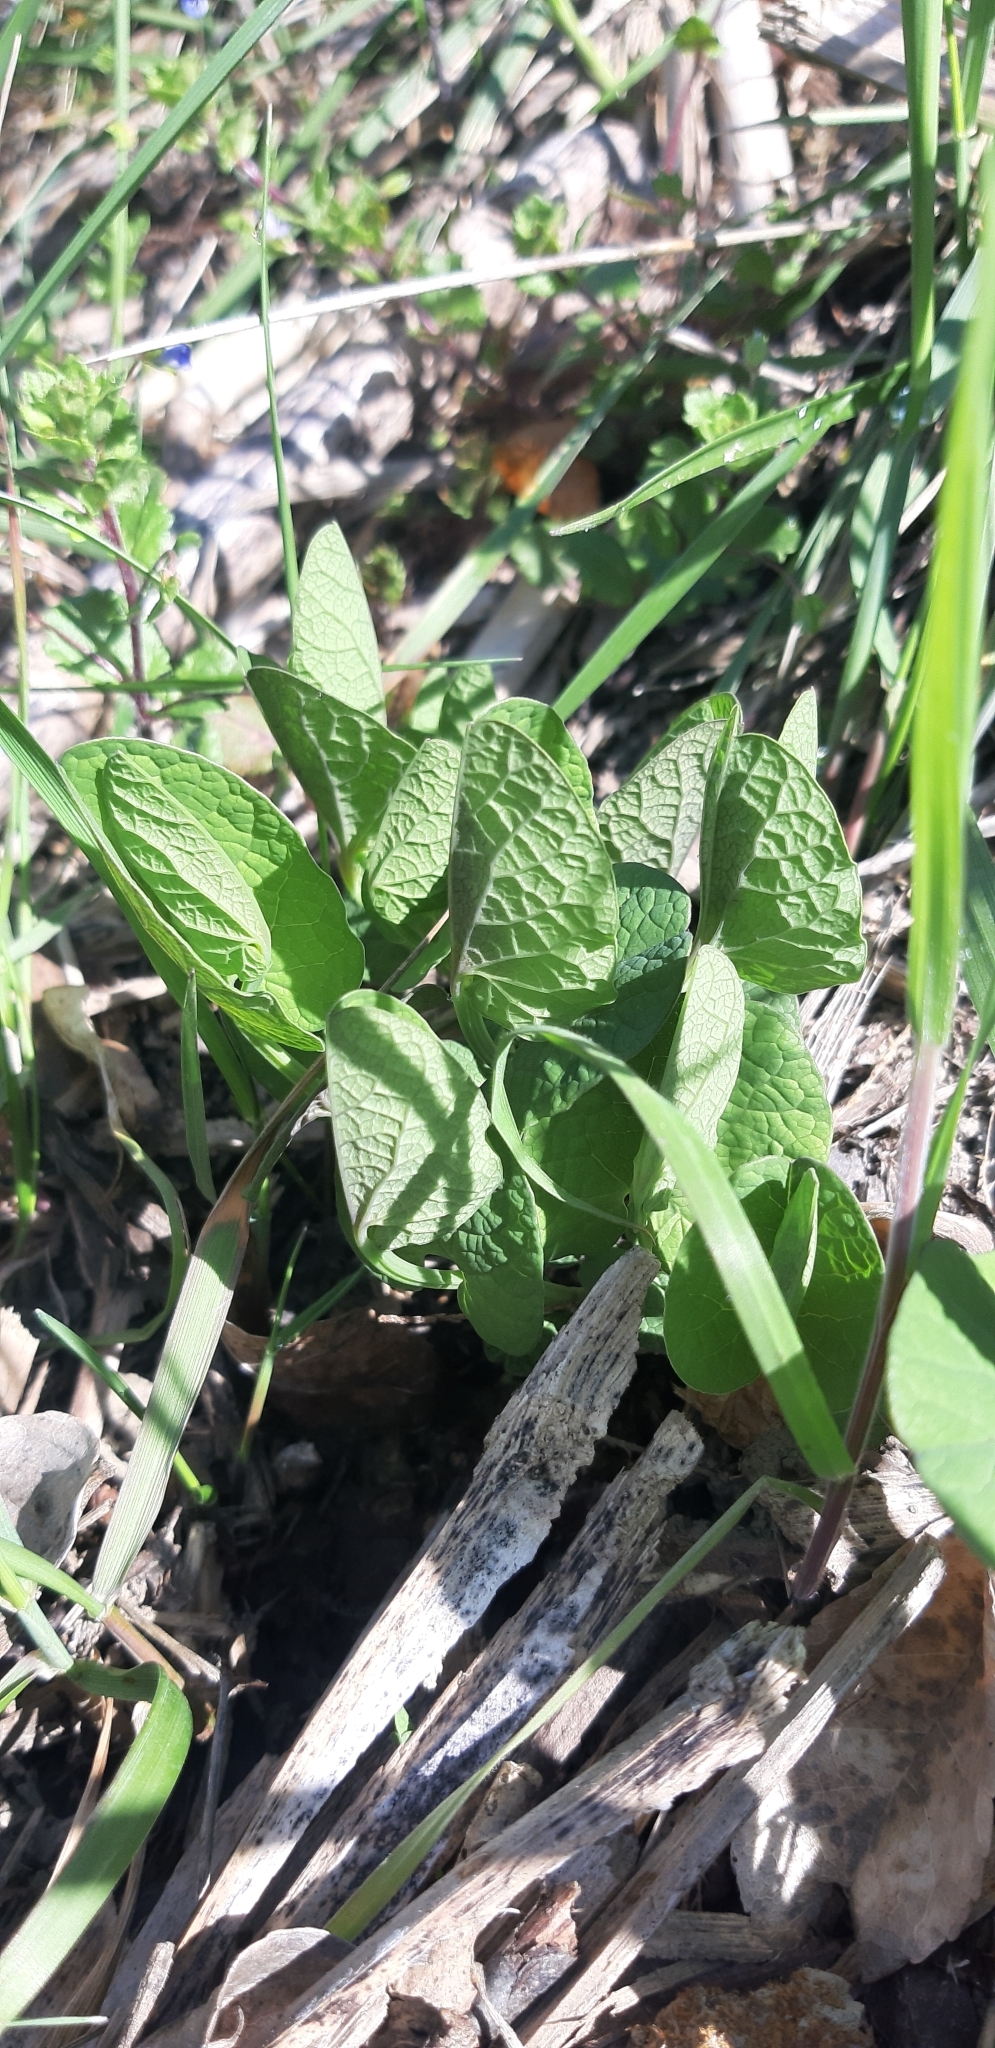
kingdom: Plantae
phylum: Tracheophyta
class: Magnoliopsida
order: Piperales
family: Aristolochiaceae
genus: Aristolochia
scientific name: Aristolochia rotunda
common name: Smearwort
